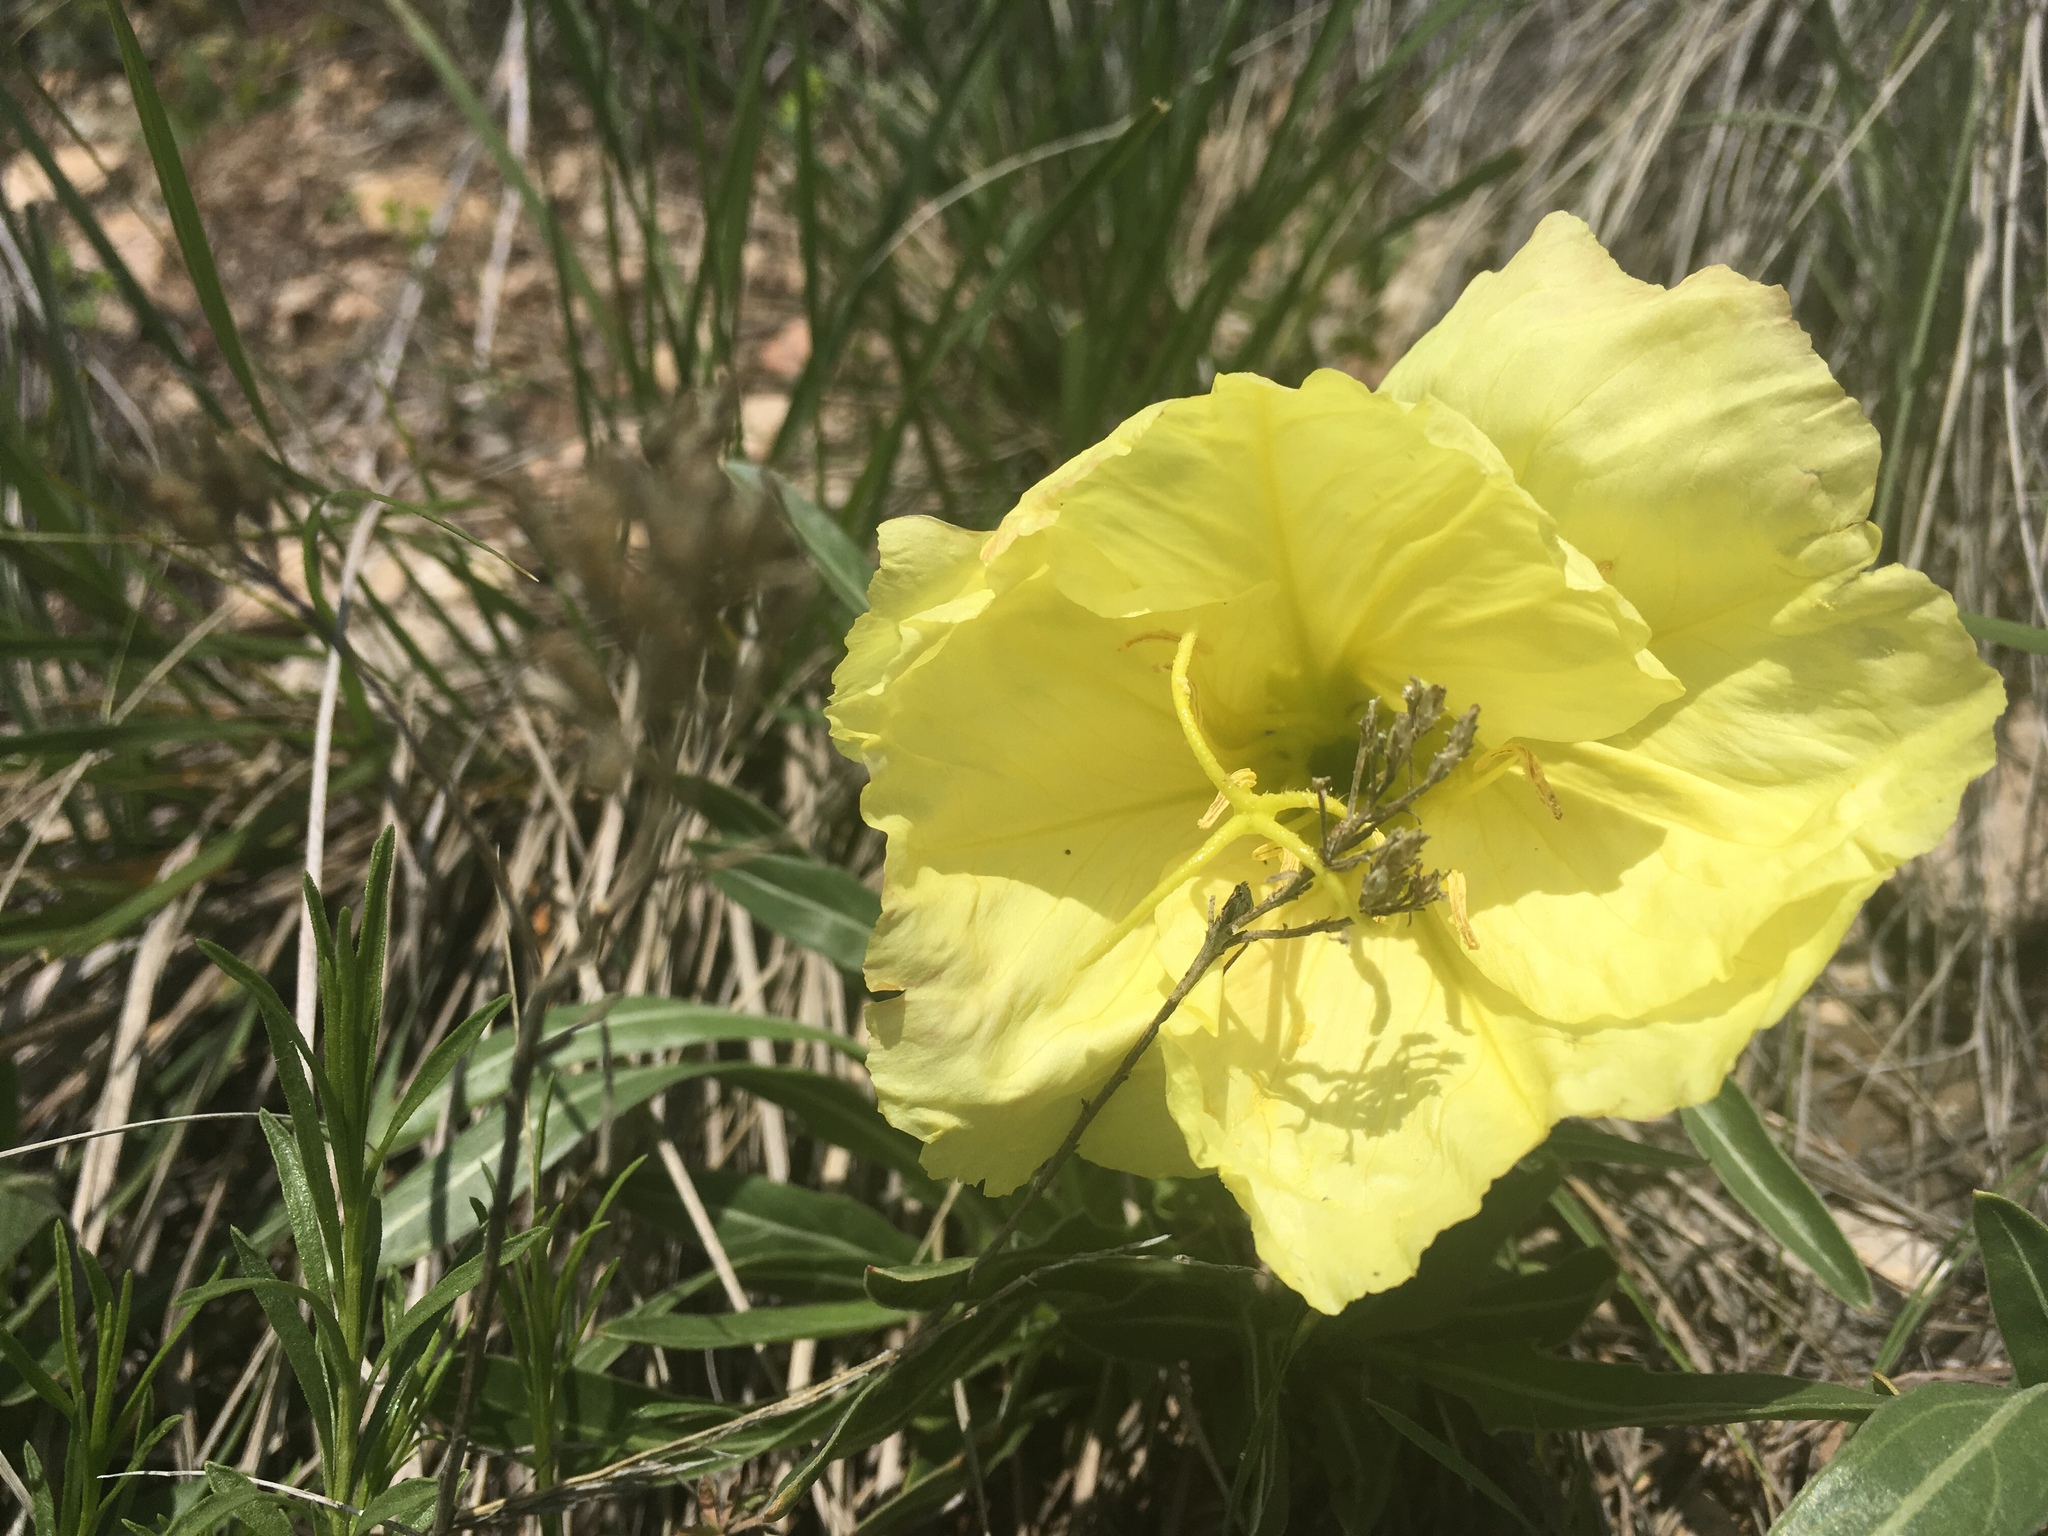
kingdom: Plantae
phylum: Tracheophyta
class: Magnoliopsida
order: Myrtales
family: Onagraceae
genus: Oenothera
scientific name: Oenothera howardii
